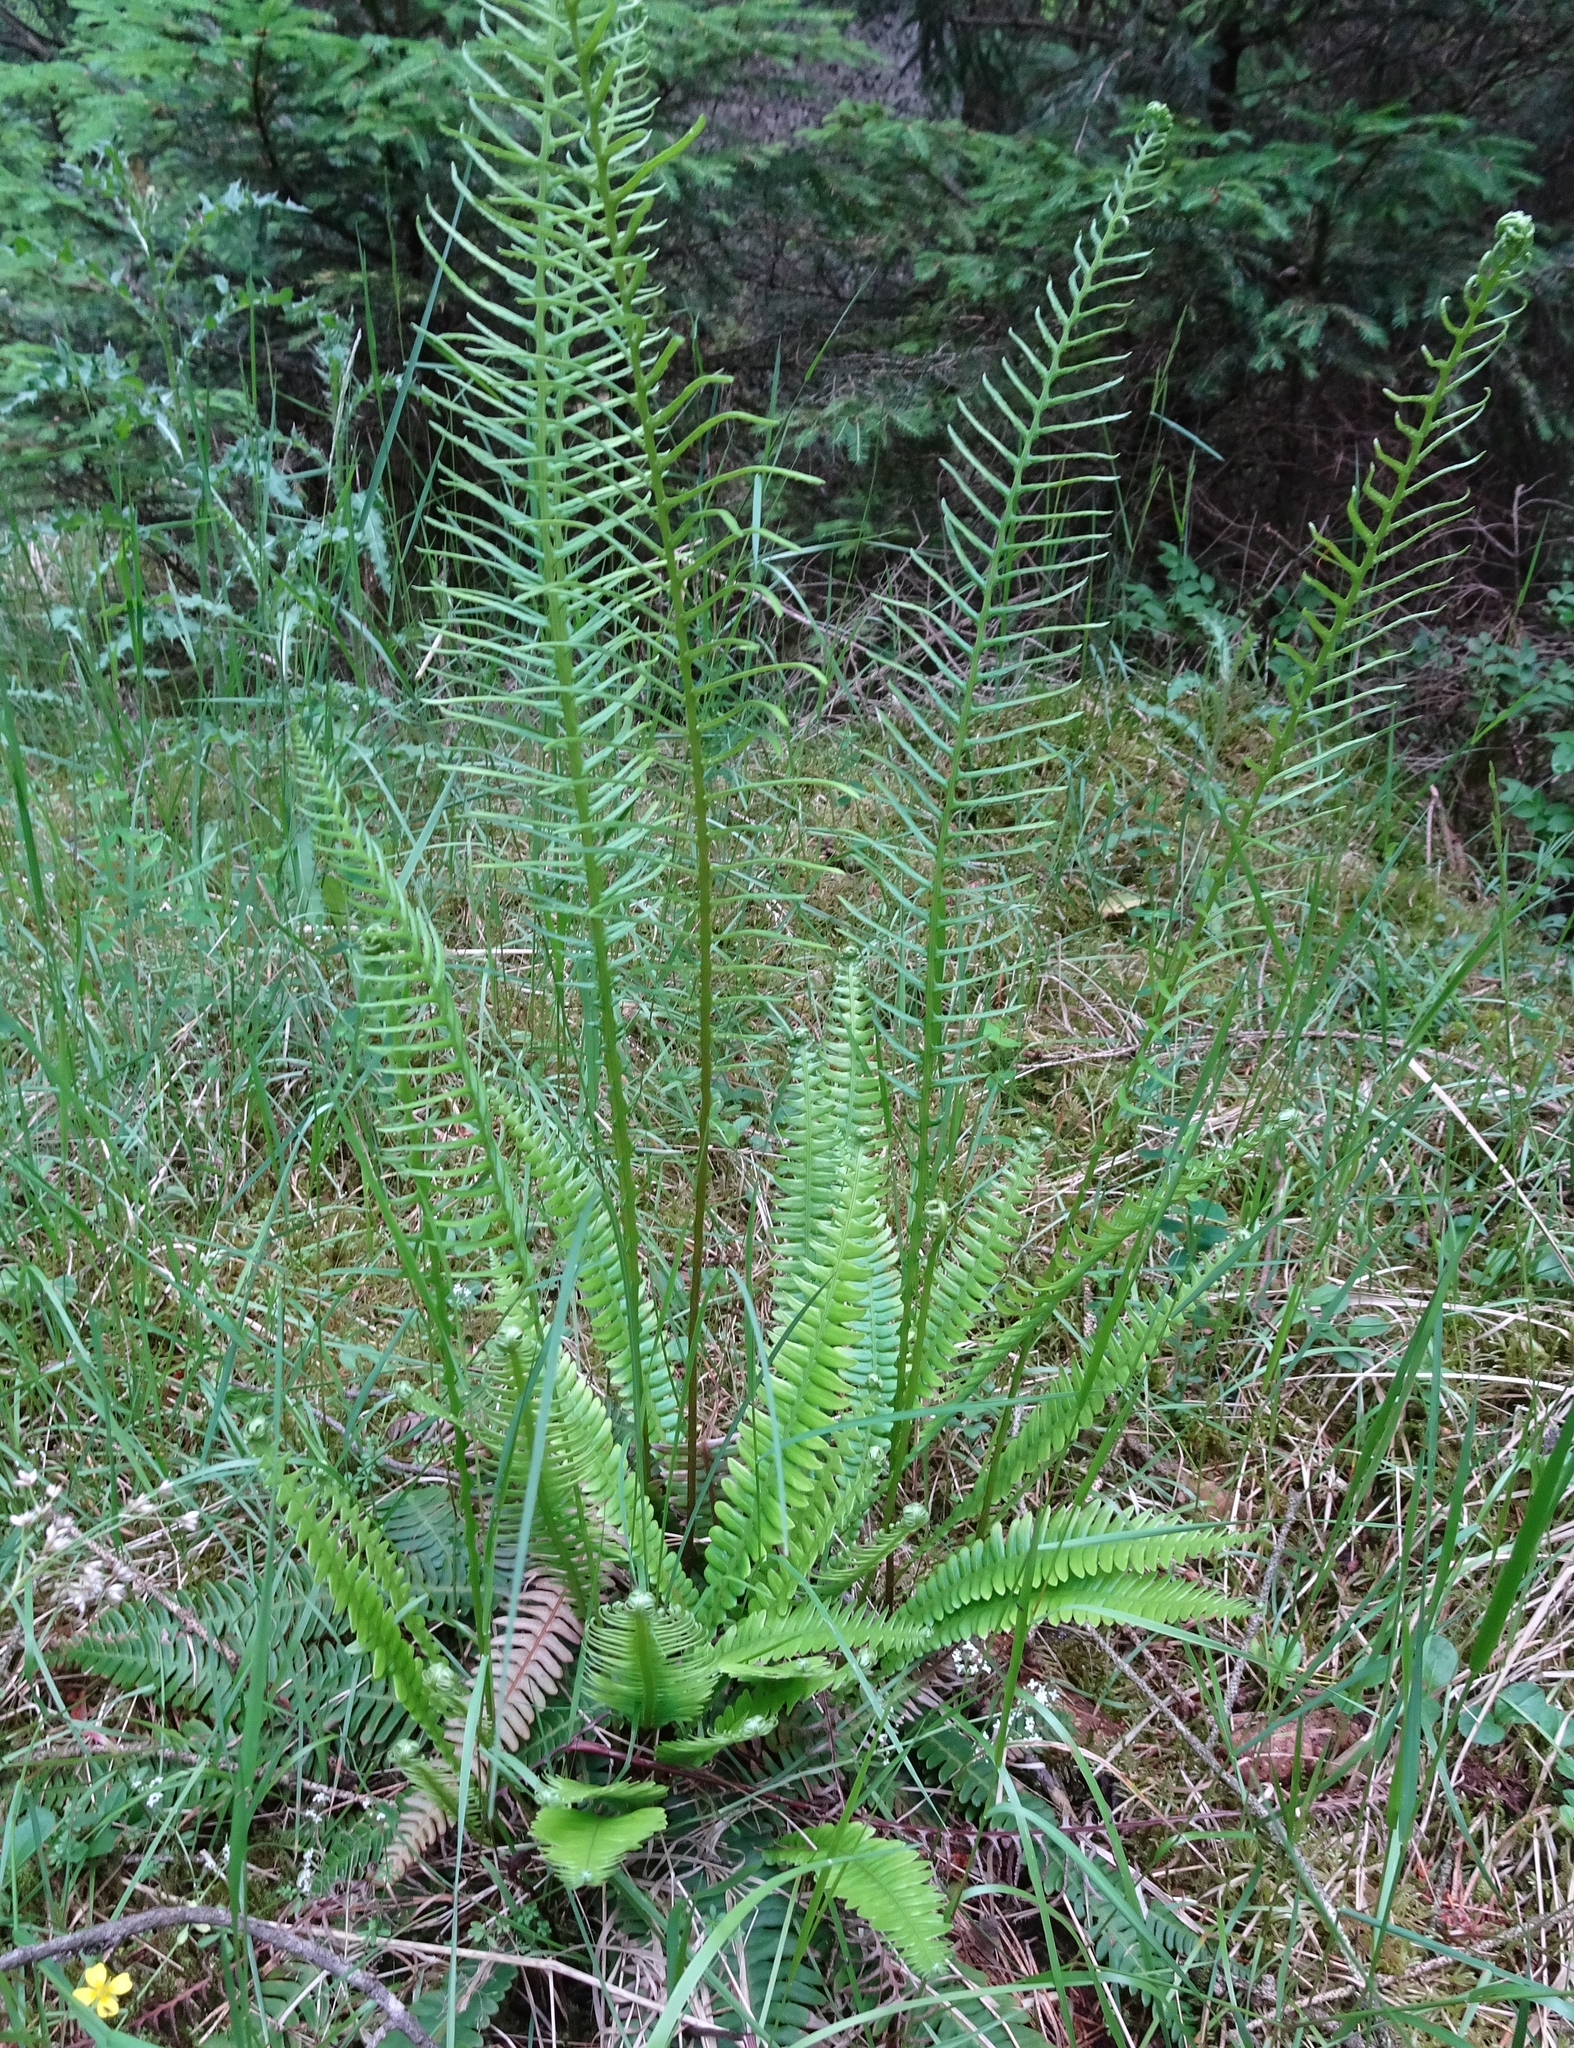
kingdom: Plantae
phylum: Tracheophyta
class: Polypodiopsida
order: Polypodiales
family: Blechnaceae
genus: Struthiopteris
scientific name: Struthiopteris spicant
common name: Deer fern
